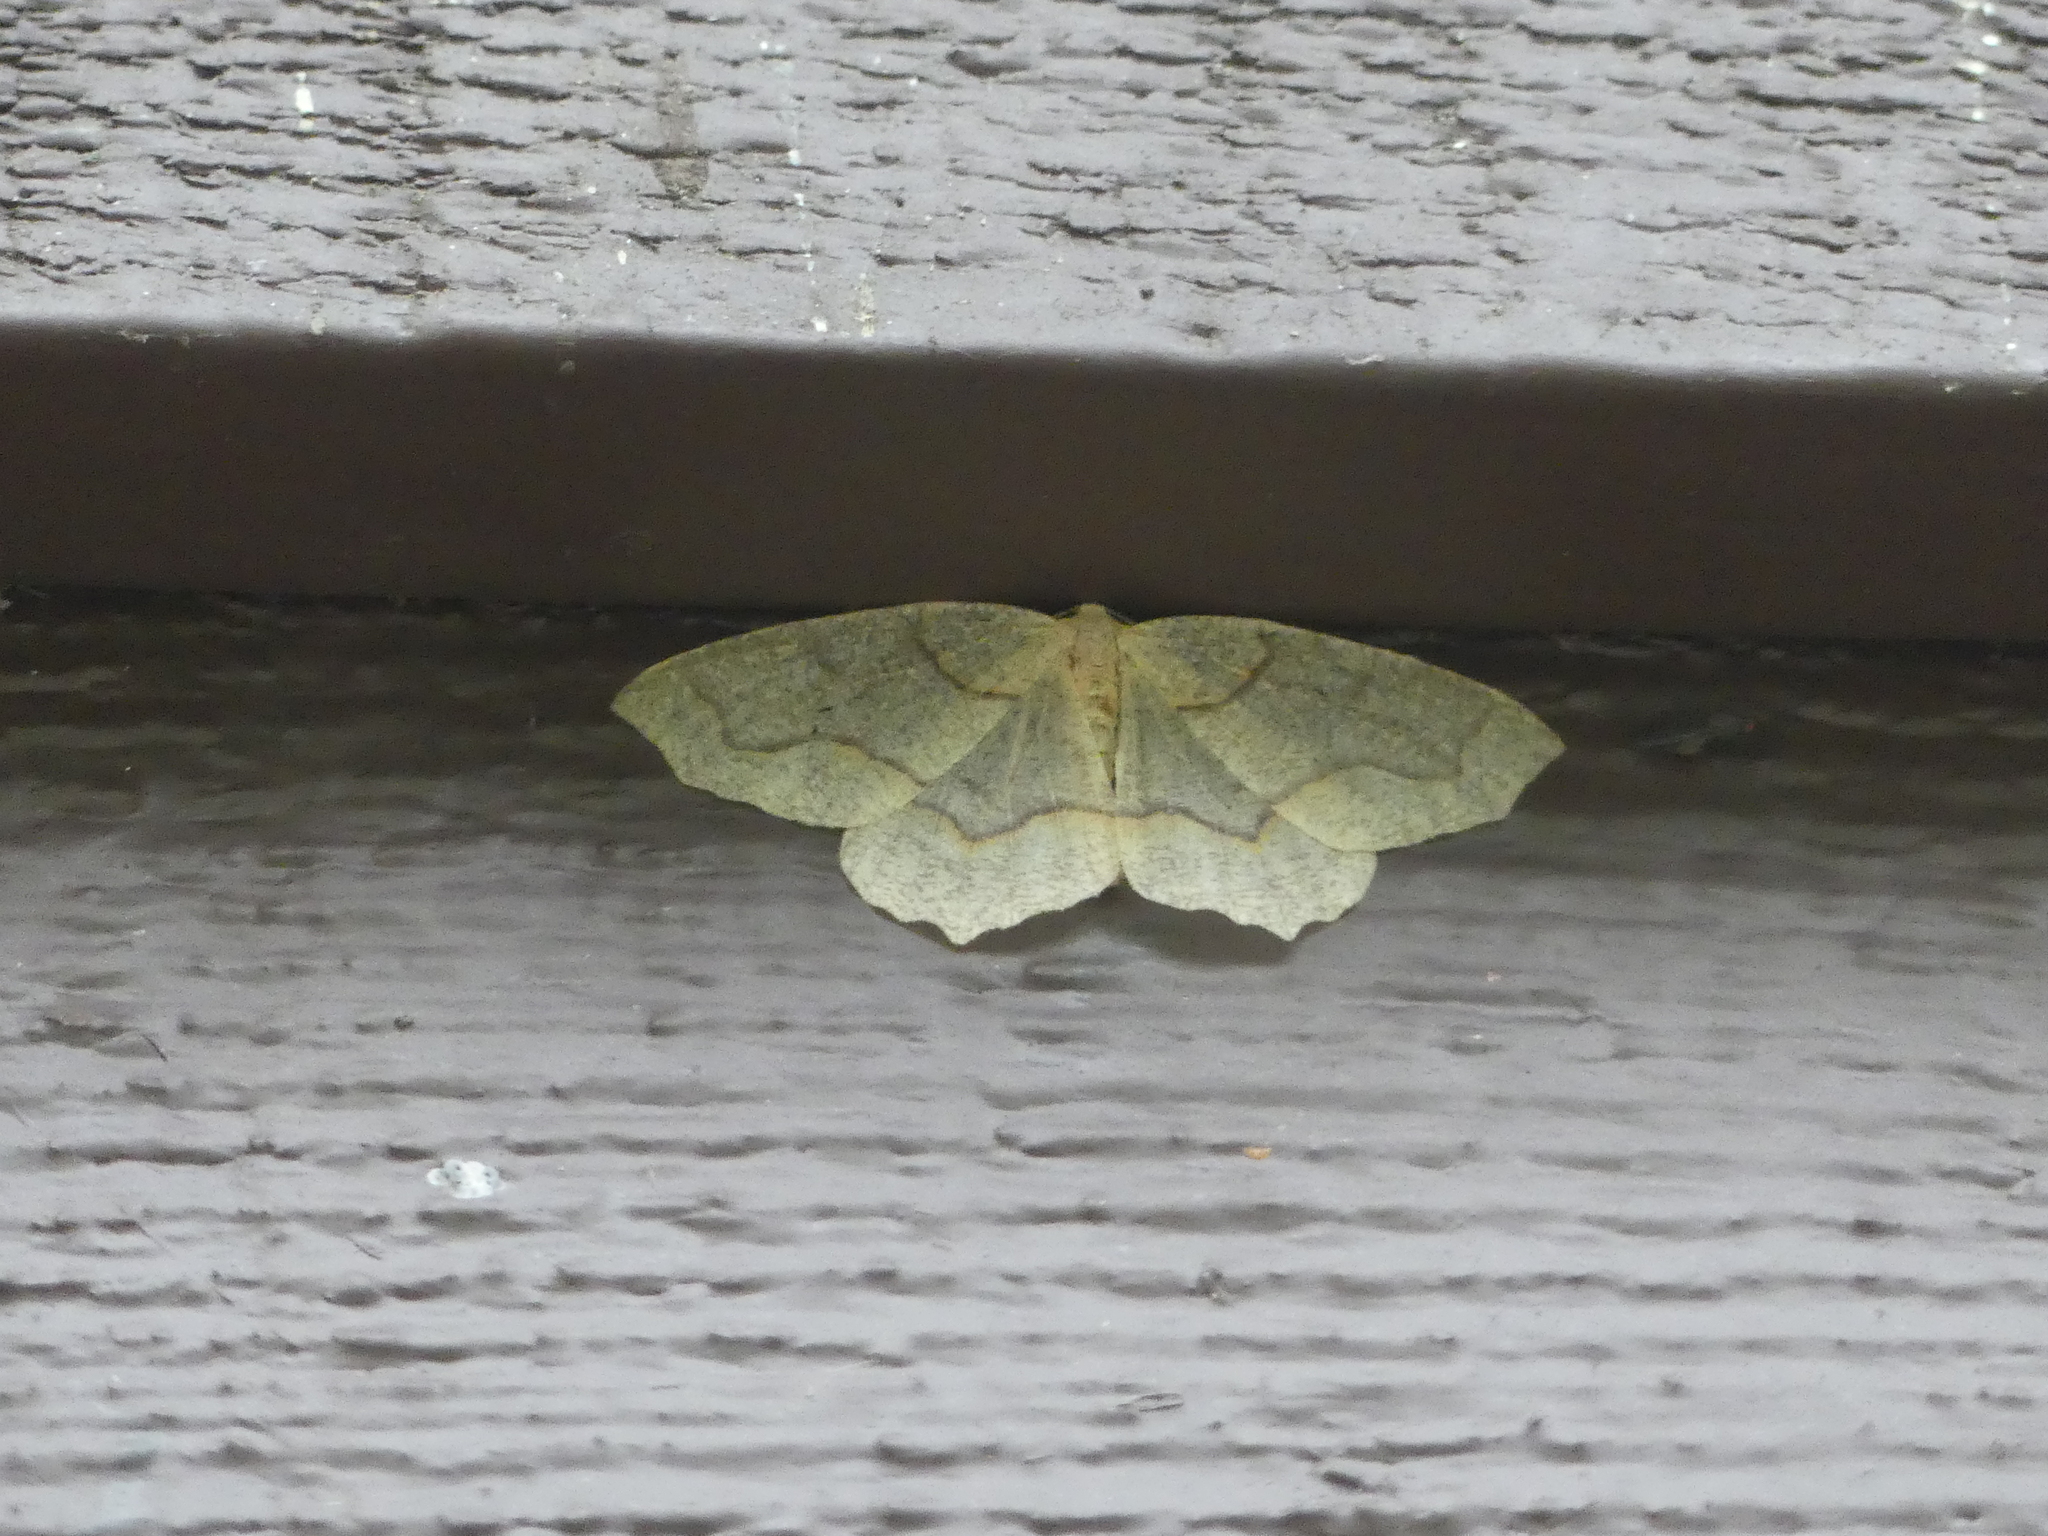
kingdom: Animalia
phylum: Arthropoda
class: Insecta
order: Lepidoptera
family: Geometridae
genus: Lambdina
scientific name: Lambdina fiscellaria
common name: Hemlock looper
